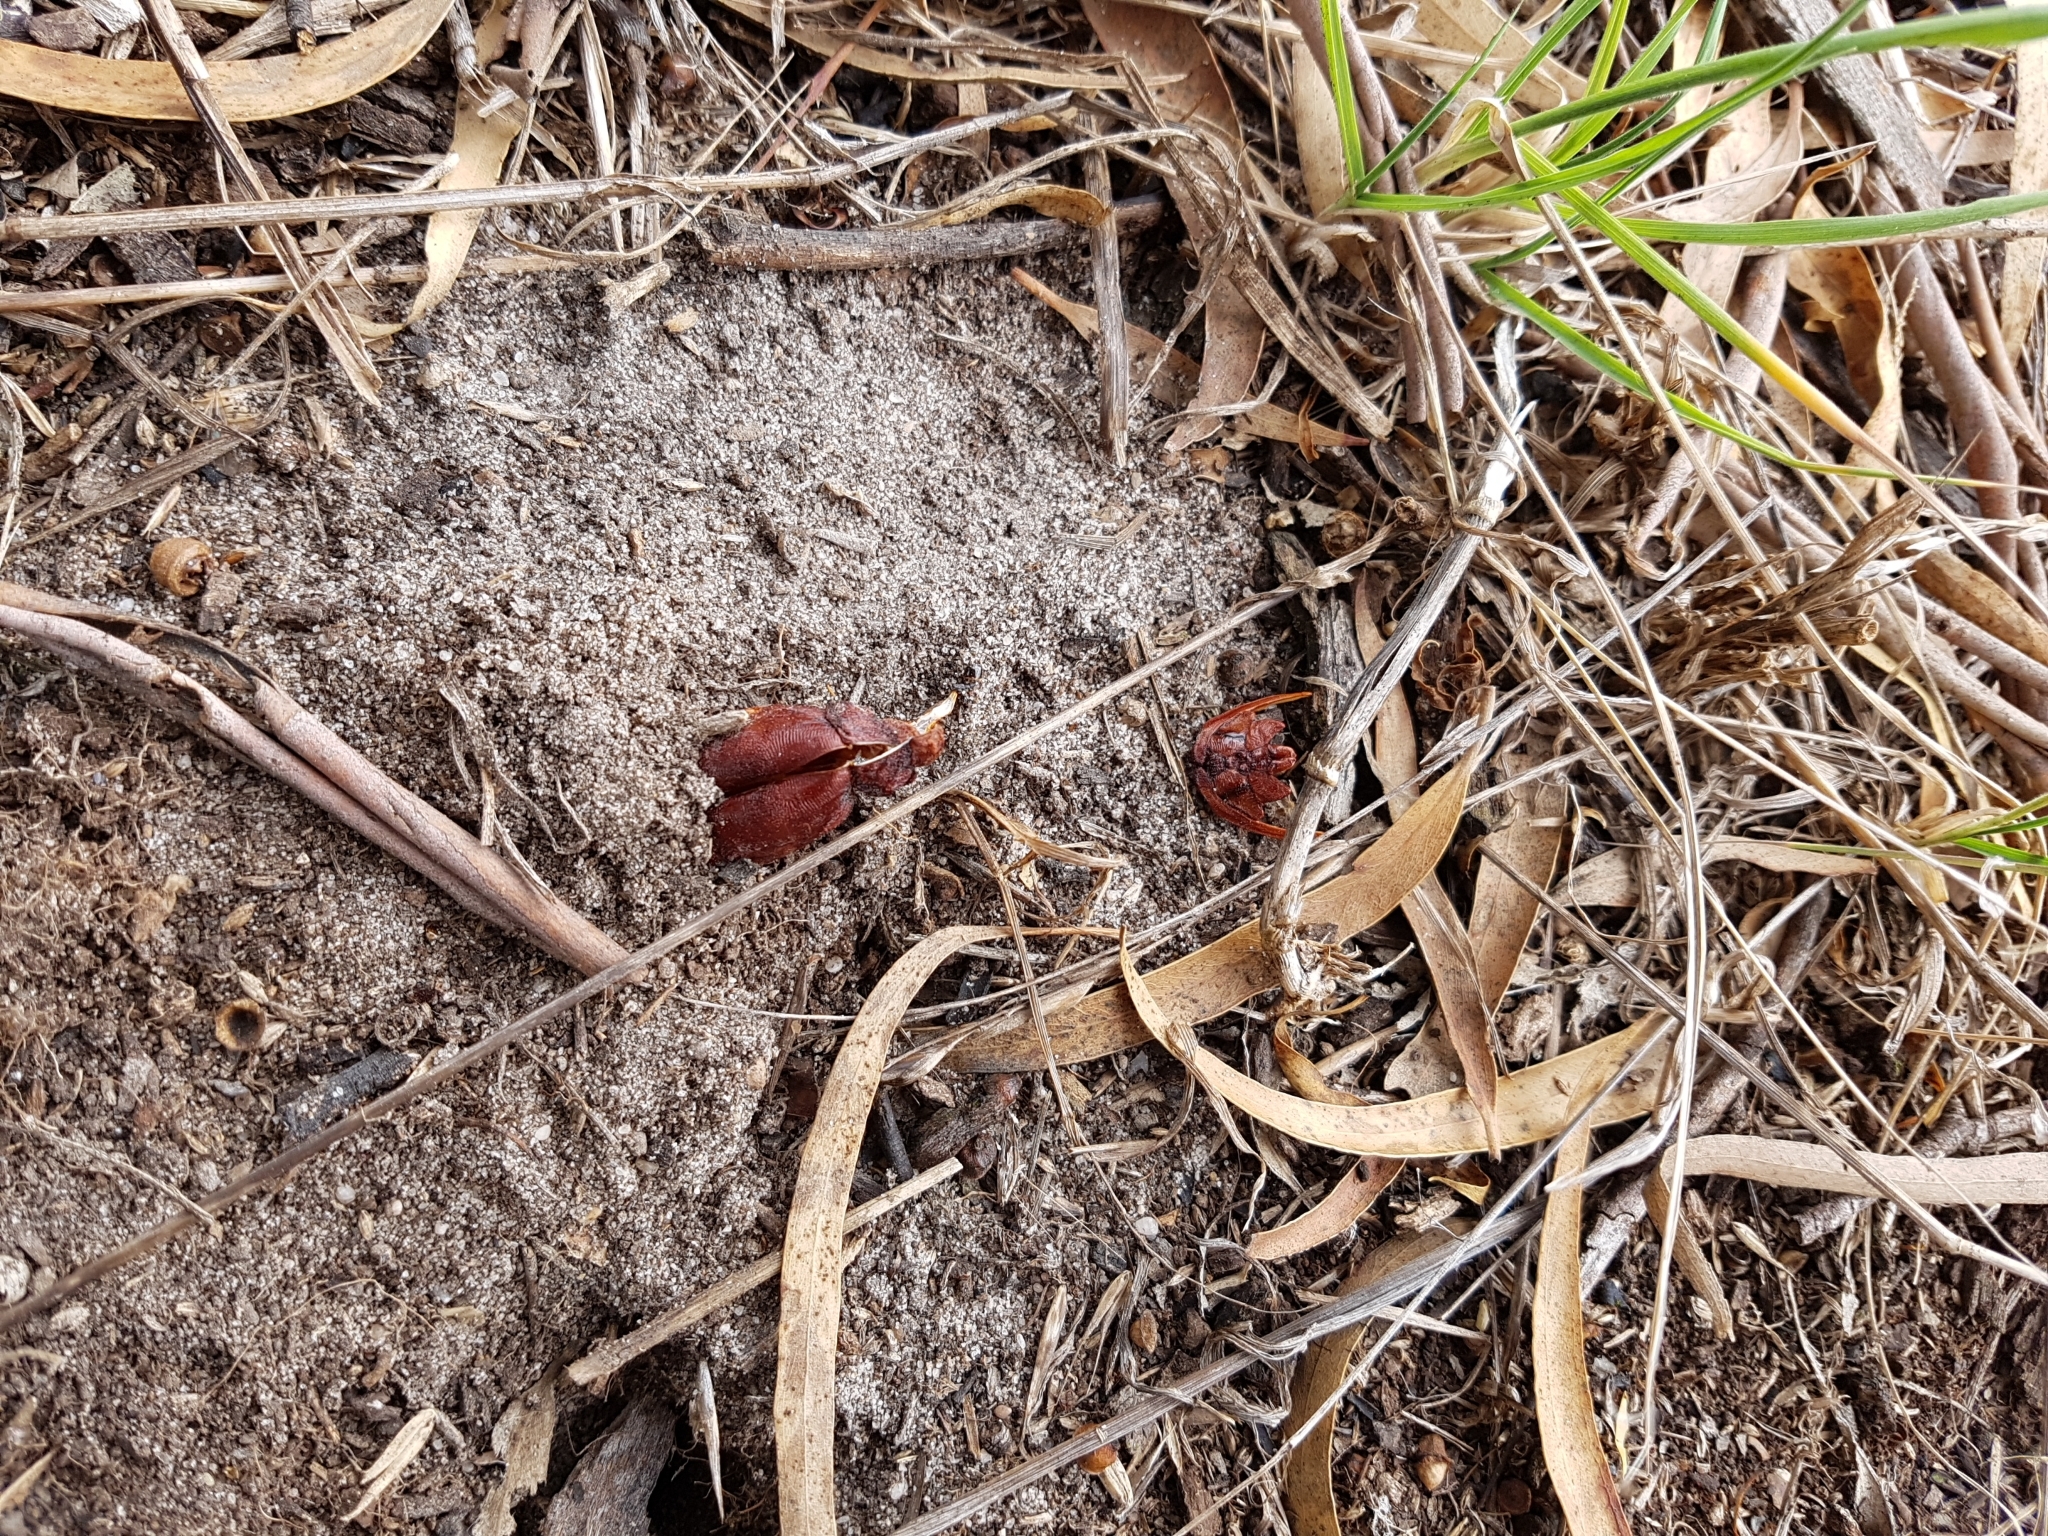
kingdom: Animalia
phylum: Arthropoda
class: Insecta
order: Lepidoptera
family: Hepialidae
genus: Abantiades
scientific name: Abantiades atripalpis
